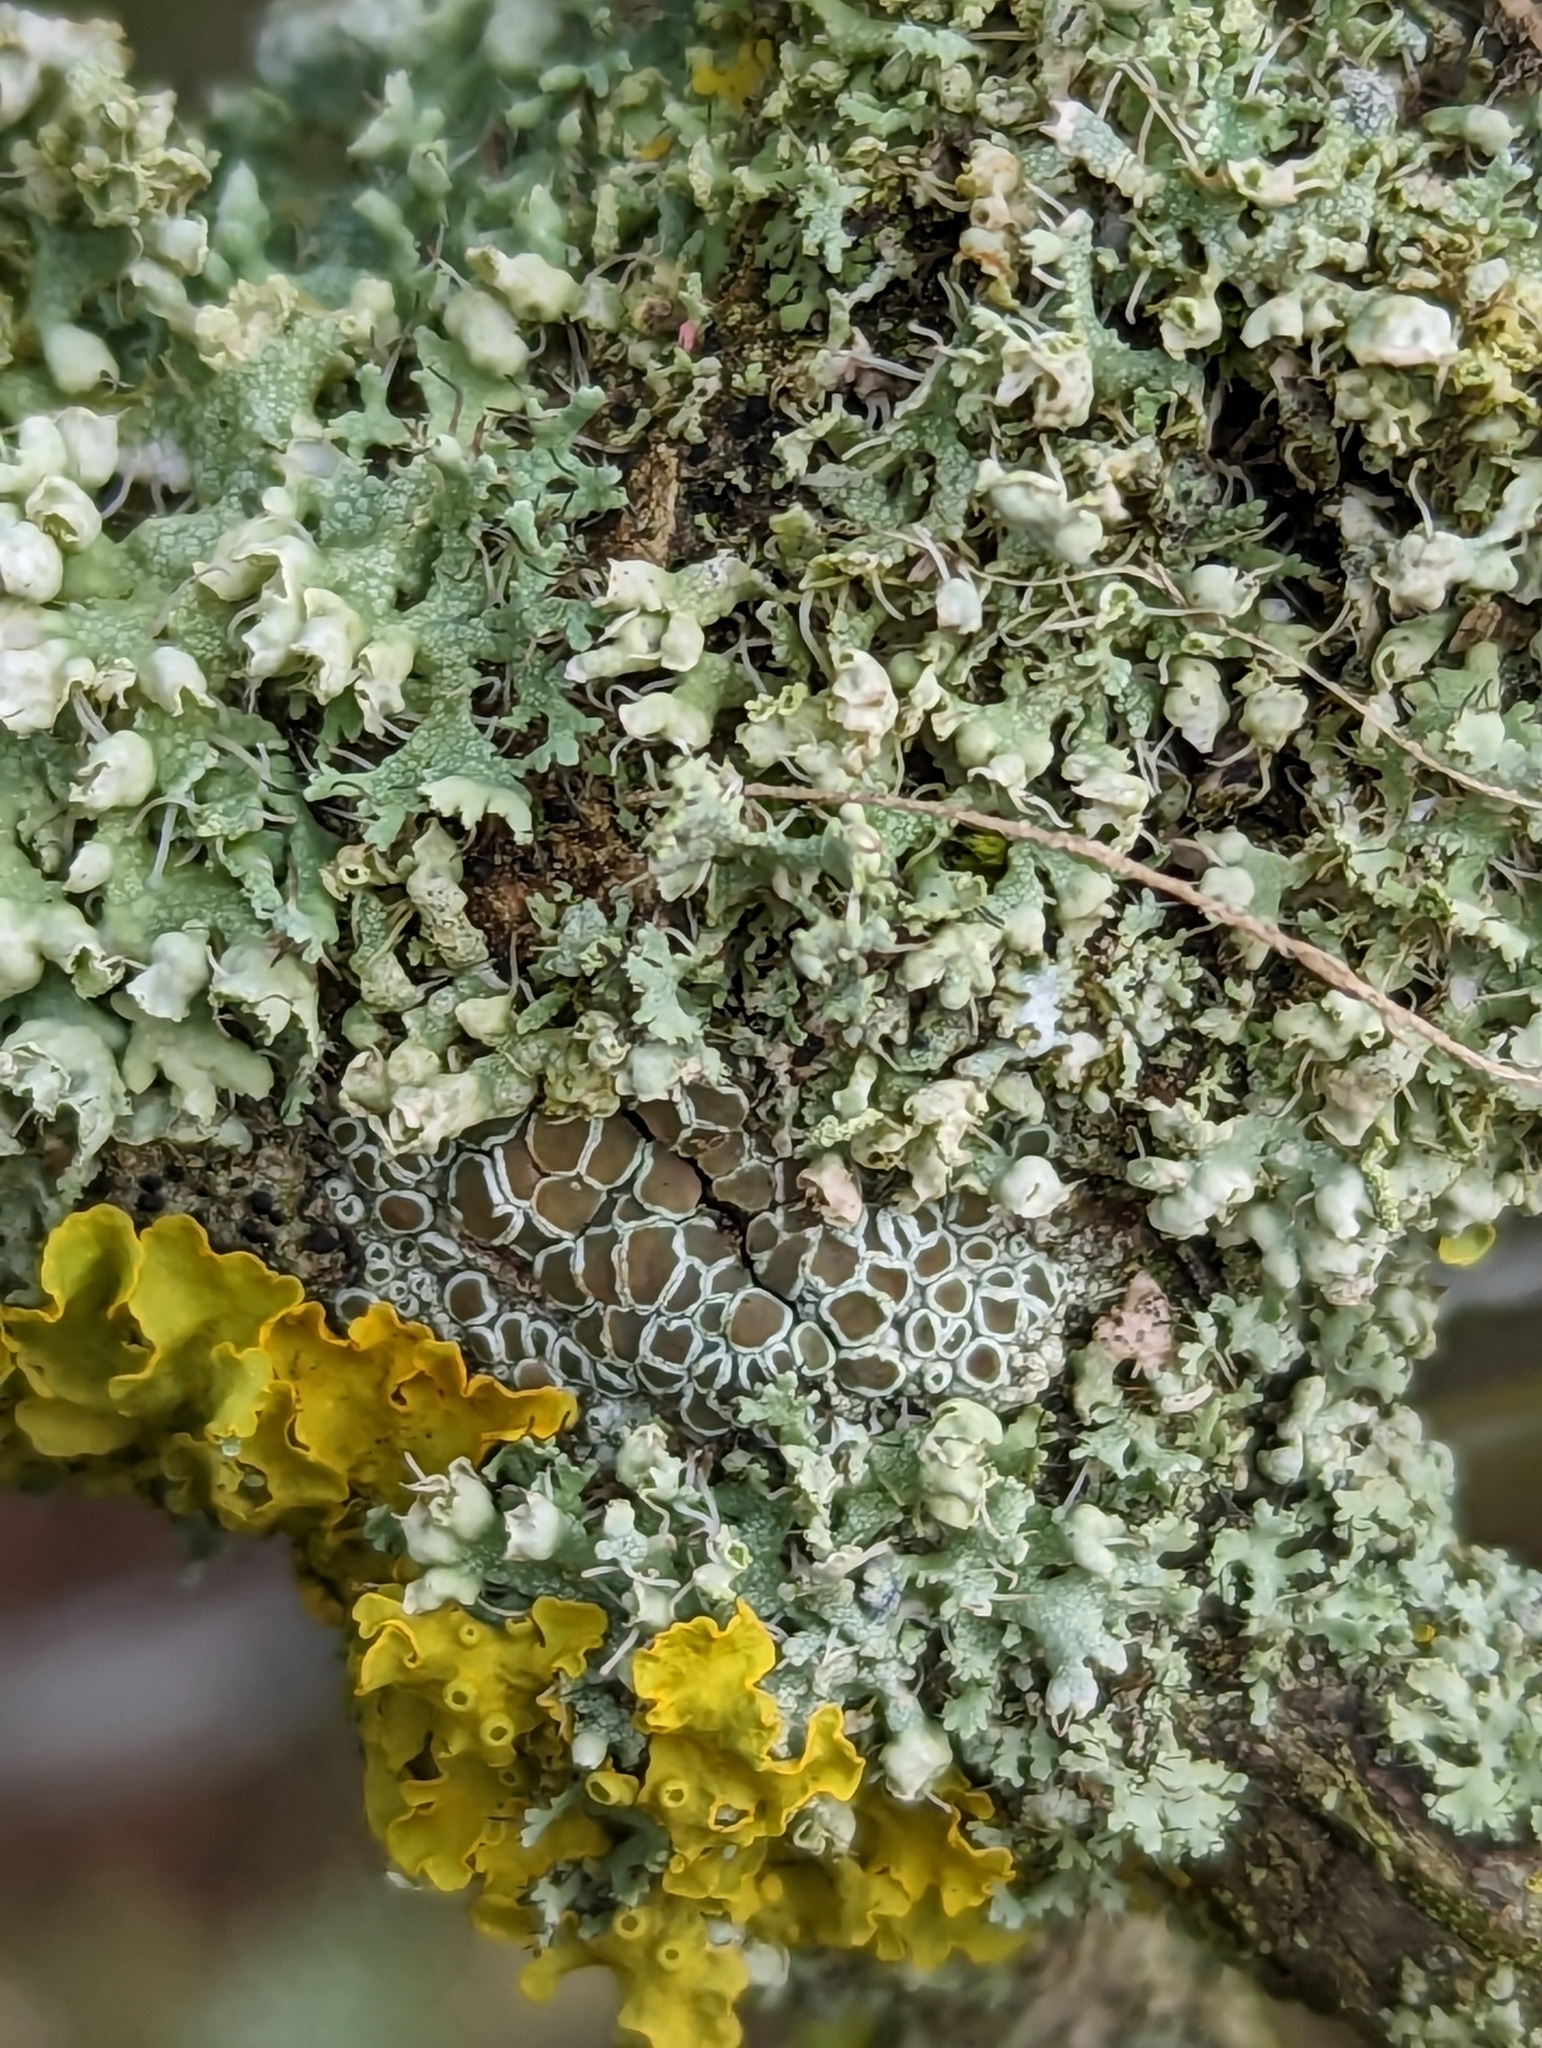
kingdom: Fungi
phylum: Ascomycota
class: Lecanoromycetes
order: Caliciales
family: Physciaceae
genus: Physcia
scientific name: Physcia adscendens
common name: Hooded rosette lichen
